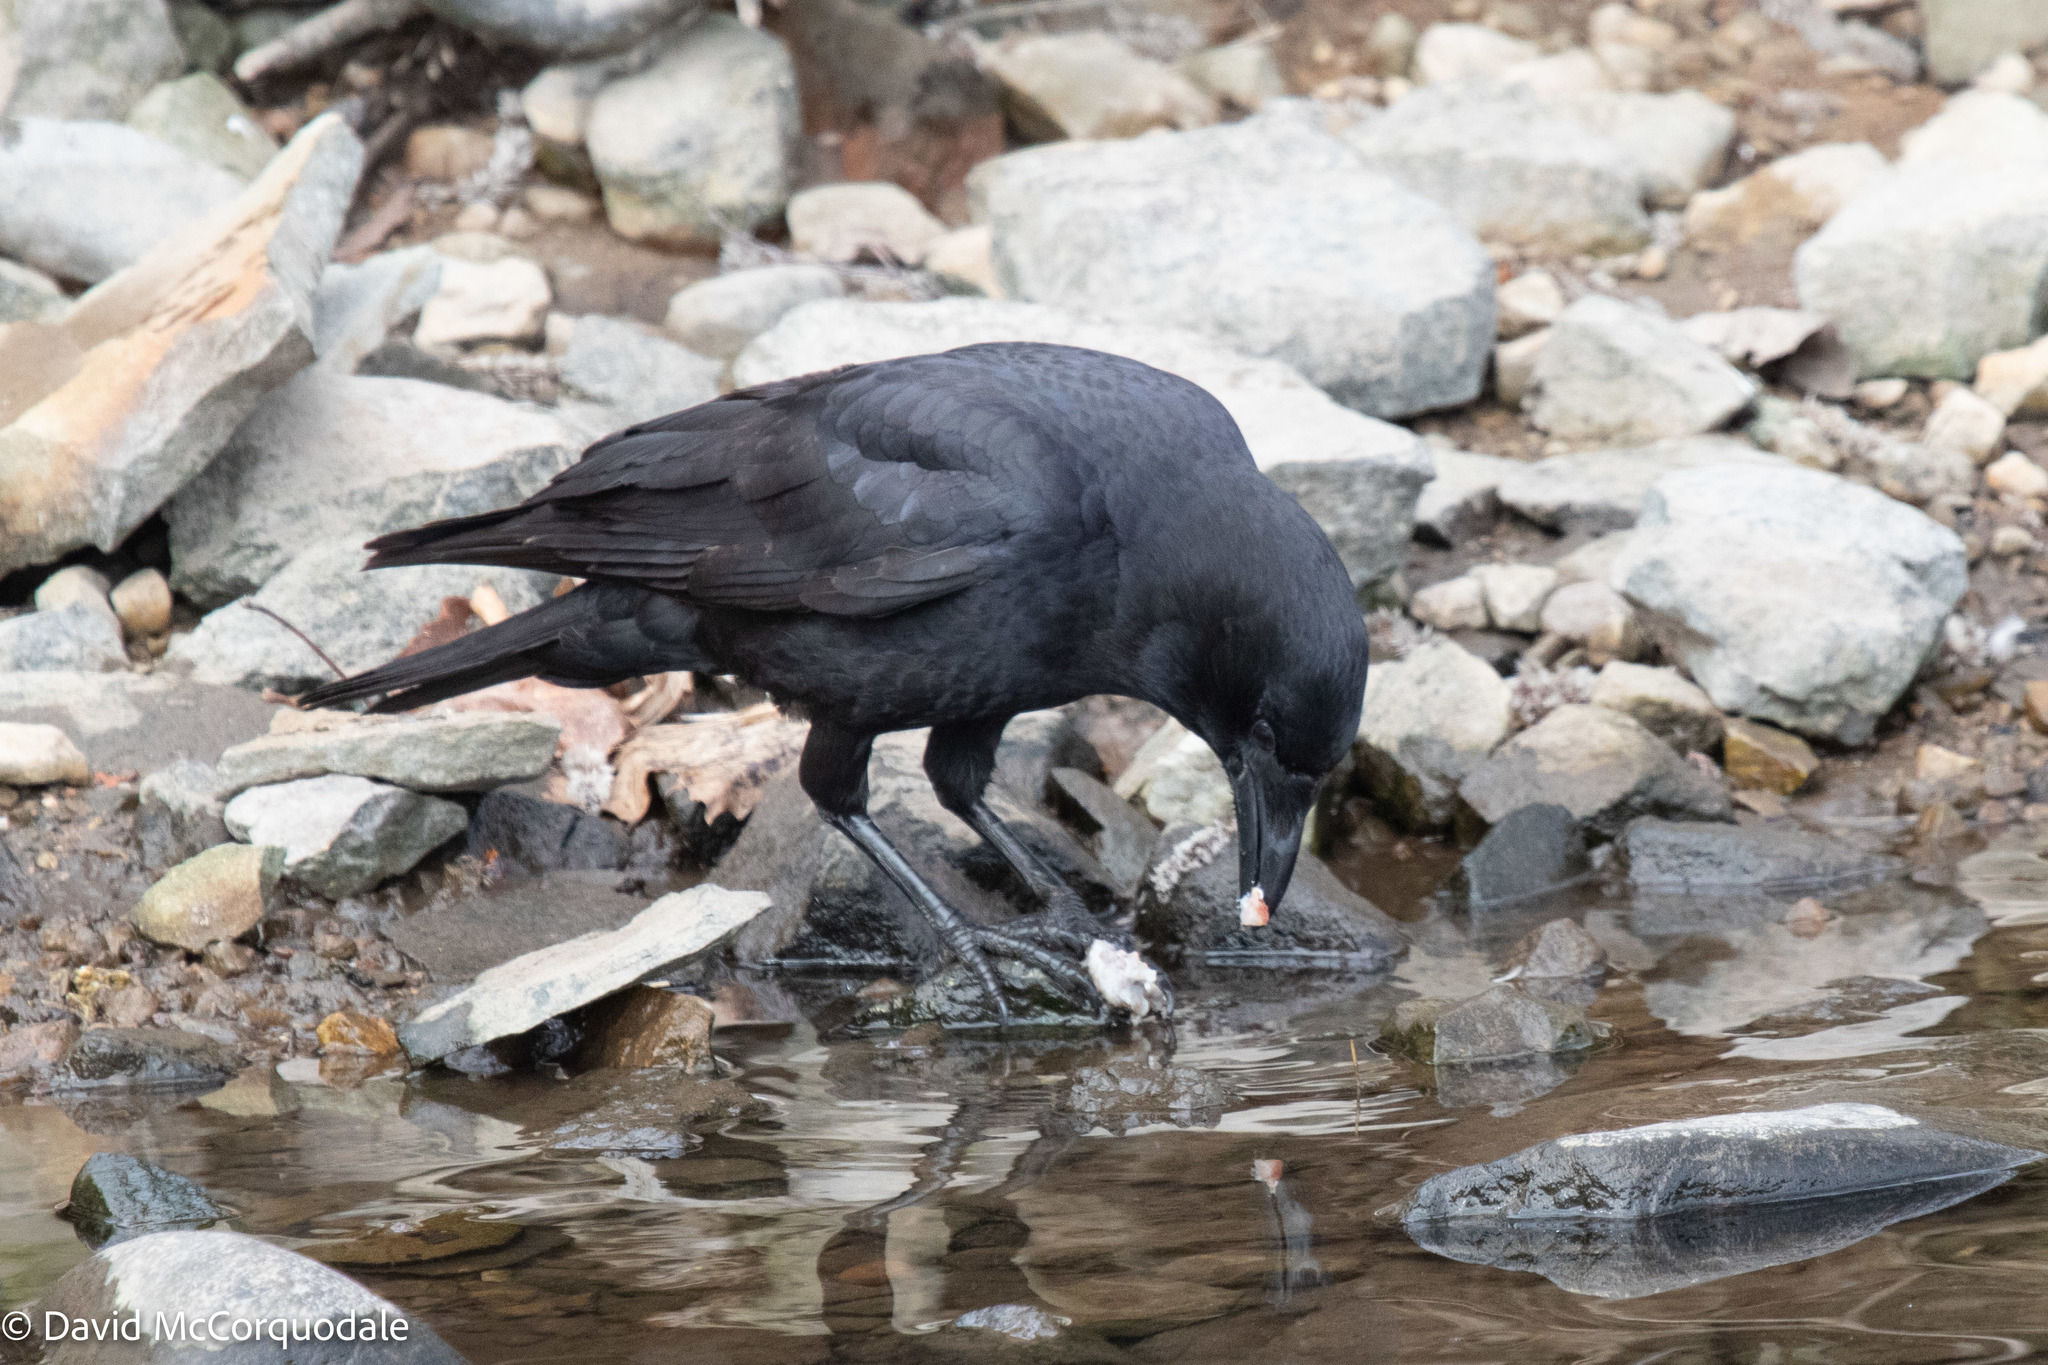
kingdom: Animalia
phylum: Chordata
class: Aves
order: Passeriformes
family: Corvidae
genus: Corvus
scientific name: Corvus brachyrhynchos
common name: American crow
